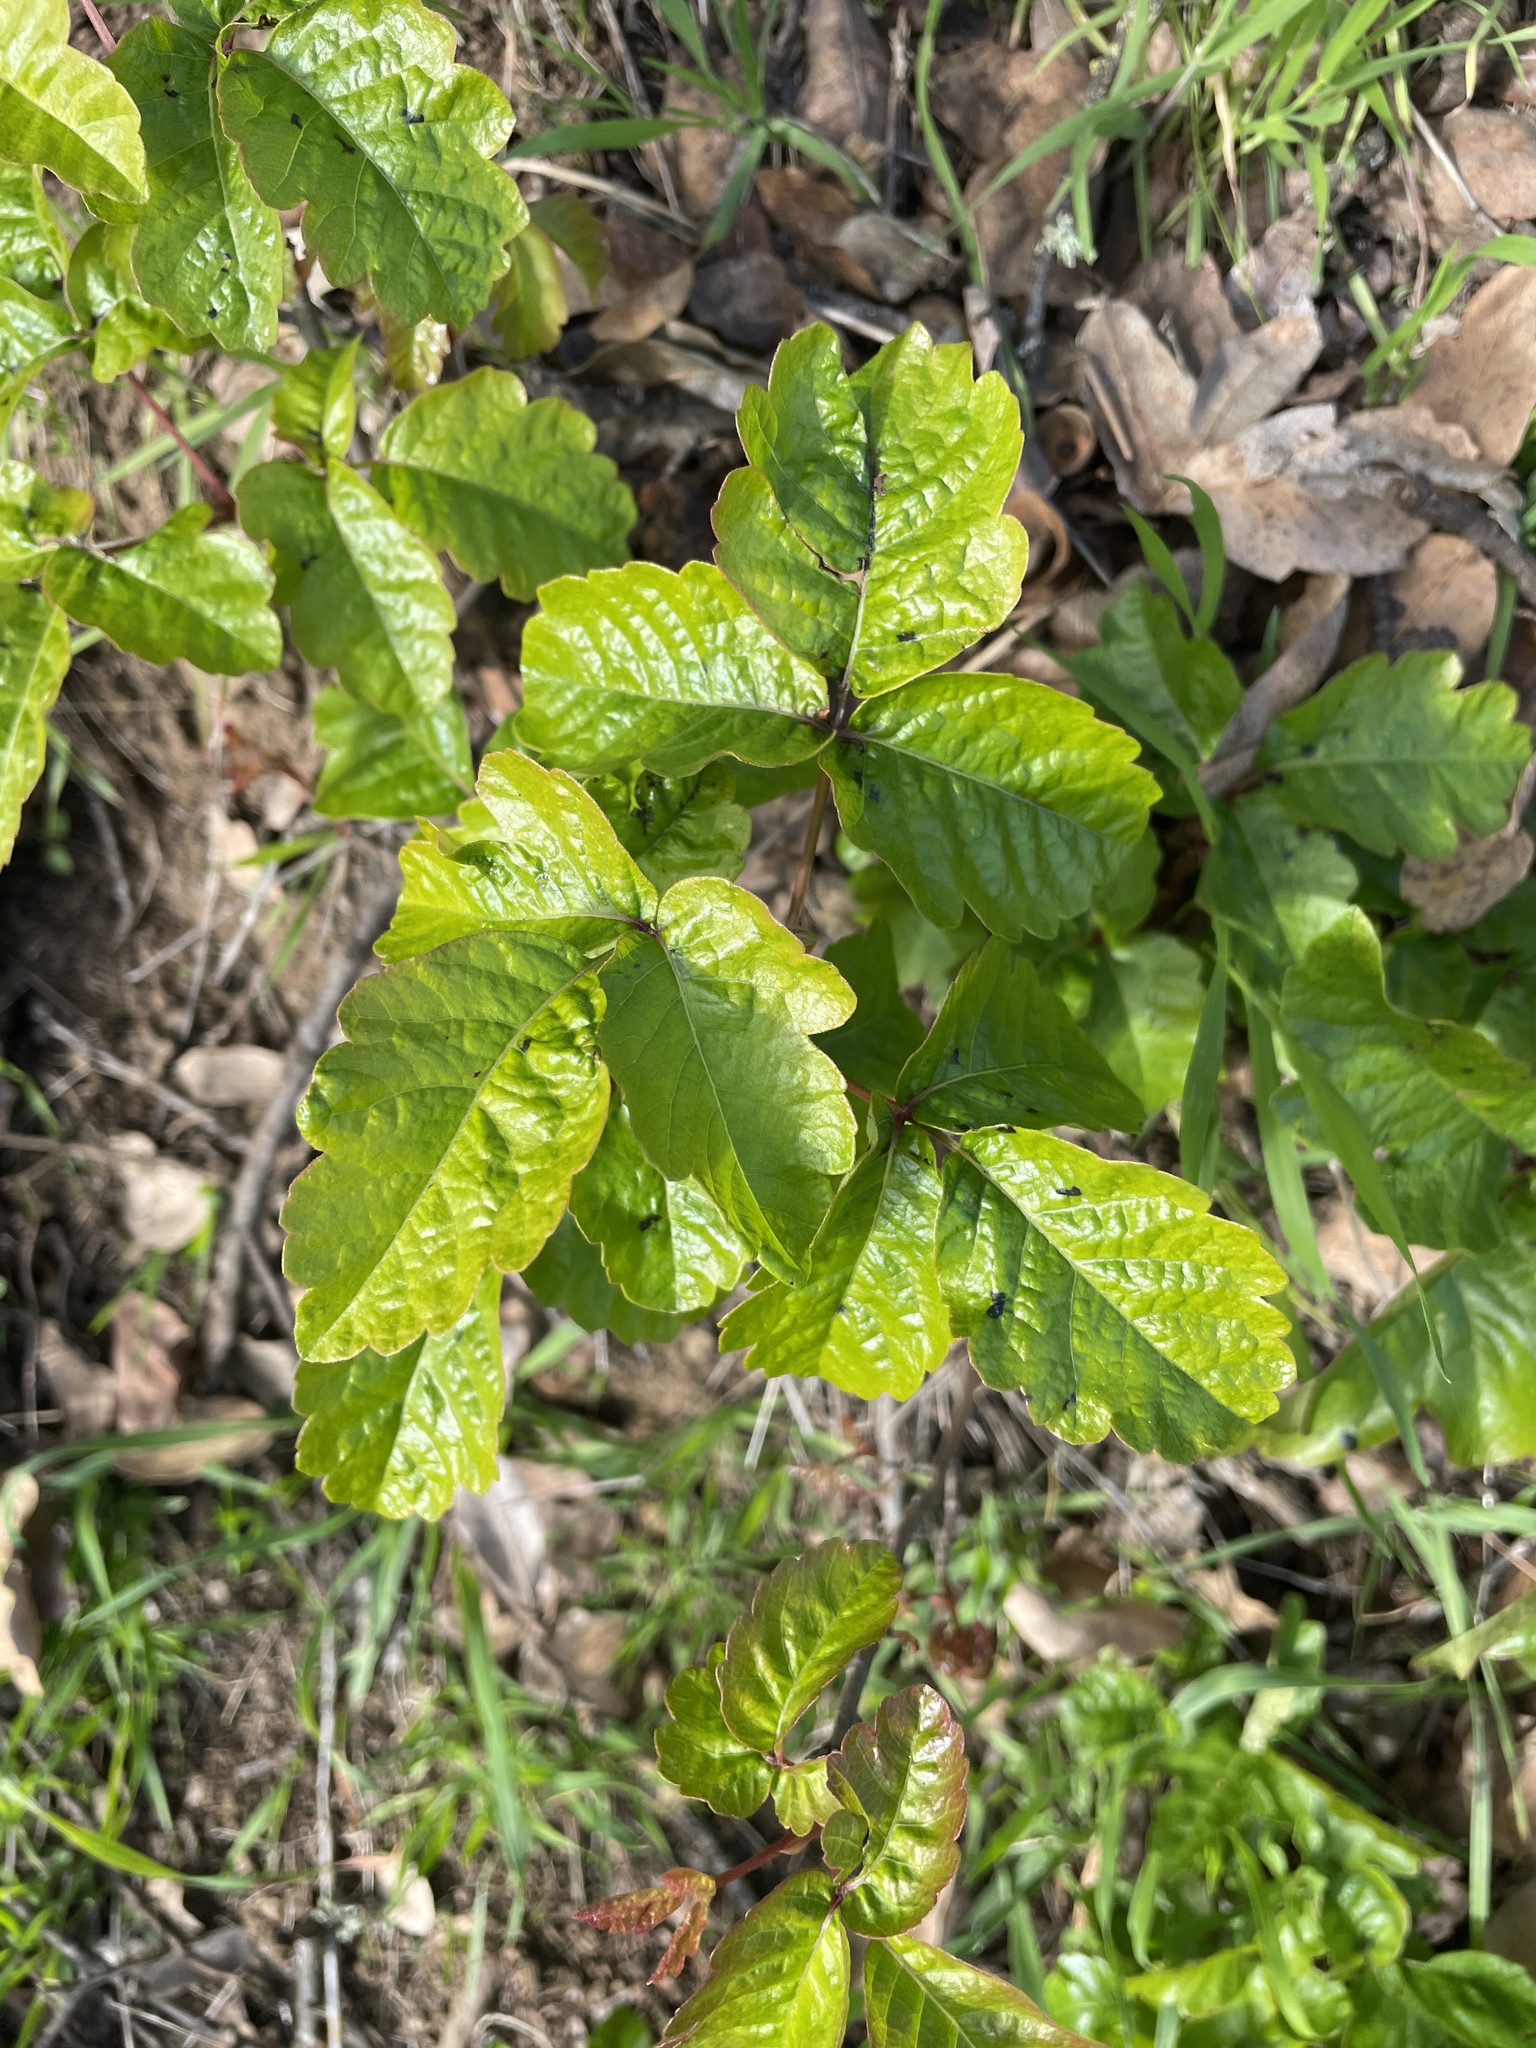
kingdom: Plantae
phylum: Tracheophyta
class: Magnoliopsida
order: Sapindales
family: Anacardiaceae
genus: Toxicodendron
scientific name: Toxicodendron diversilobum
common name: Pacific poison-oak
